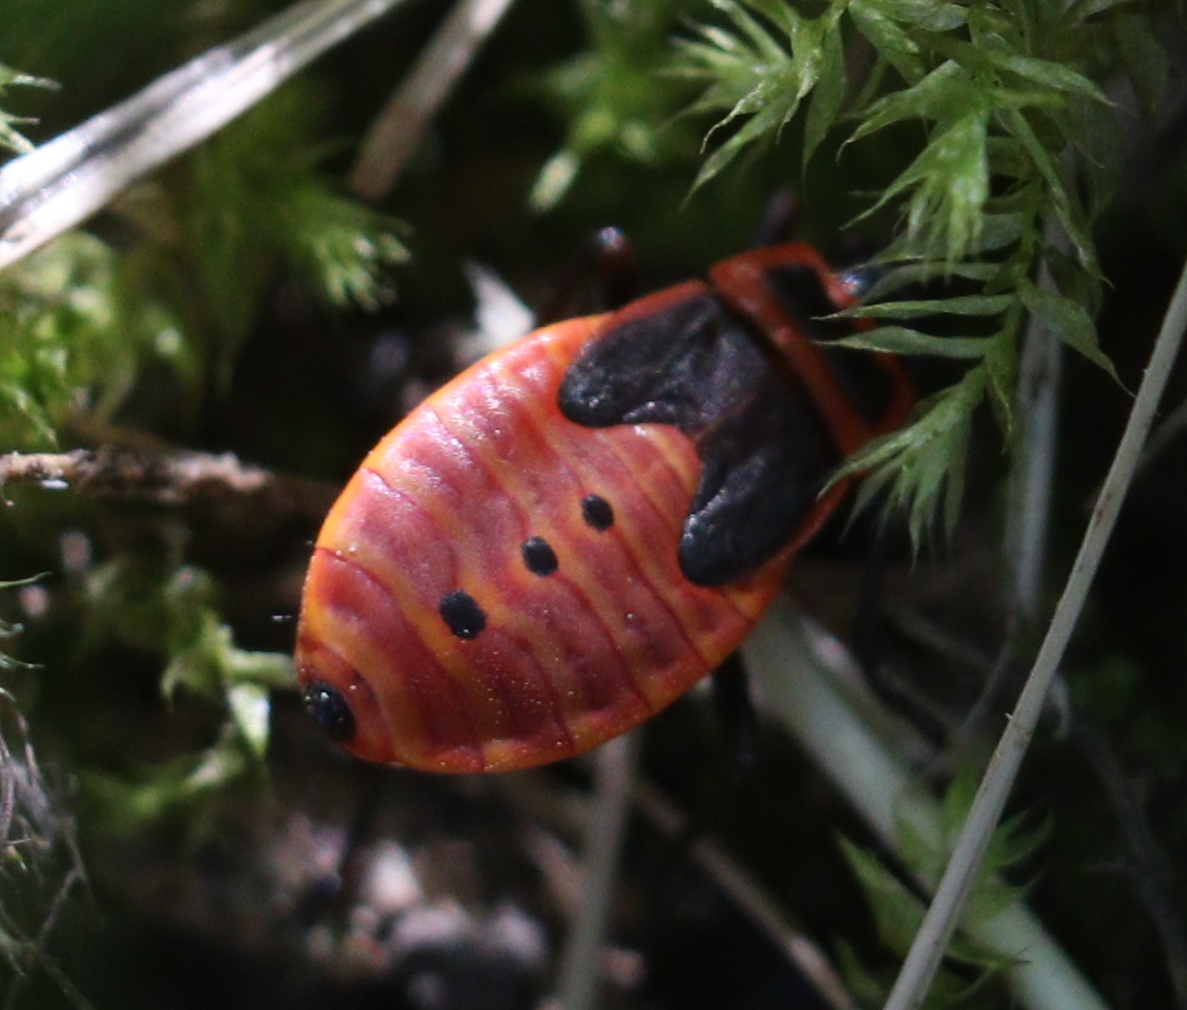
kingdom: Animalia
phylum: Arthropoda
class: Insecta
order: Hemiptera
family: Pyrrhocoridae
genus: Pyrrhocoris
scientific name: Pyrrhocoris apterus
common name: Firebug
